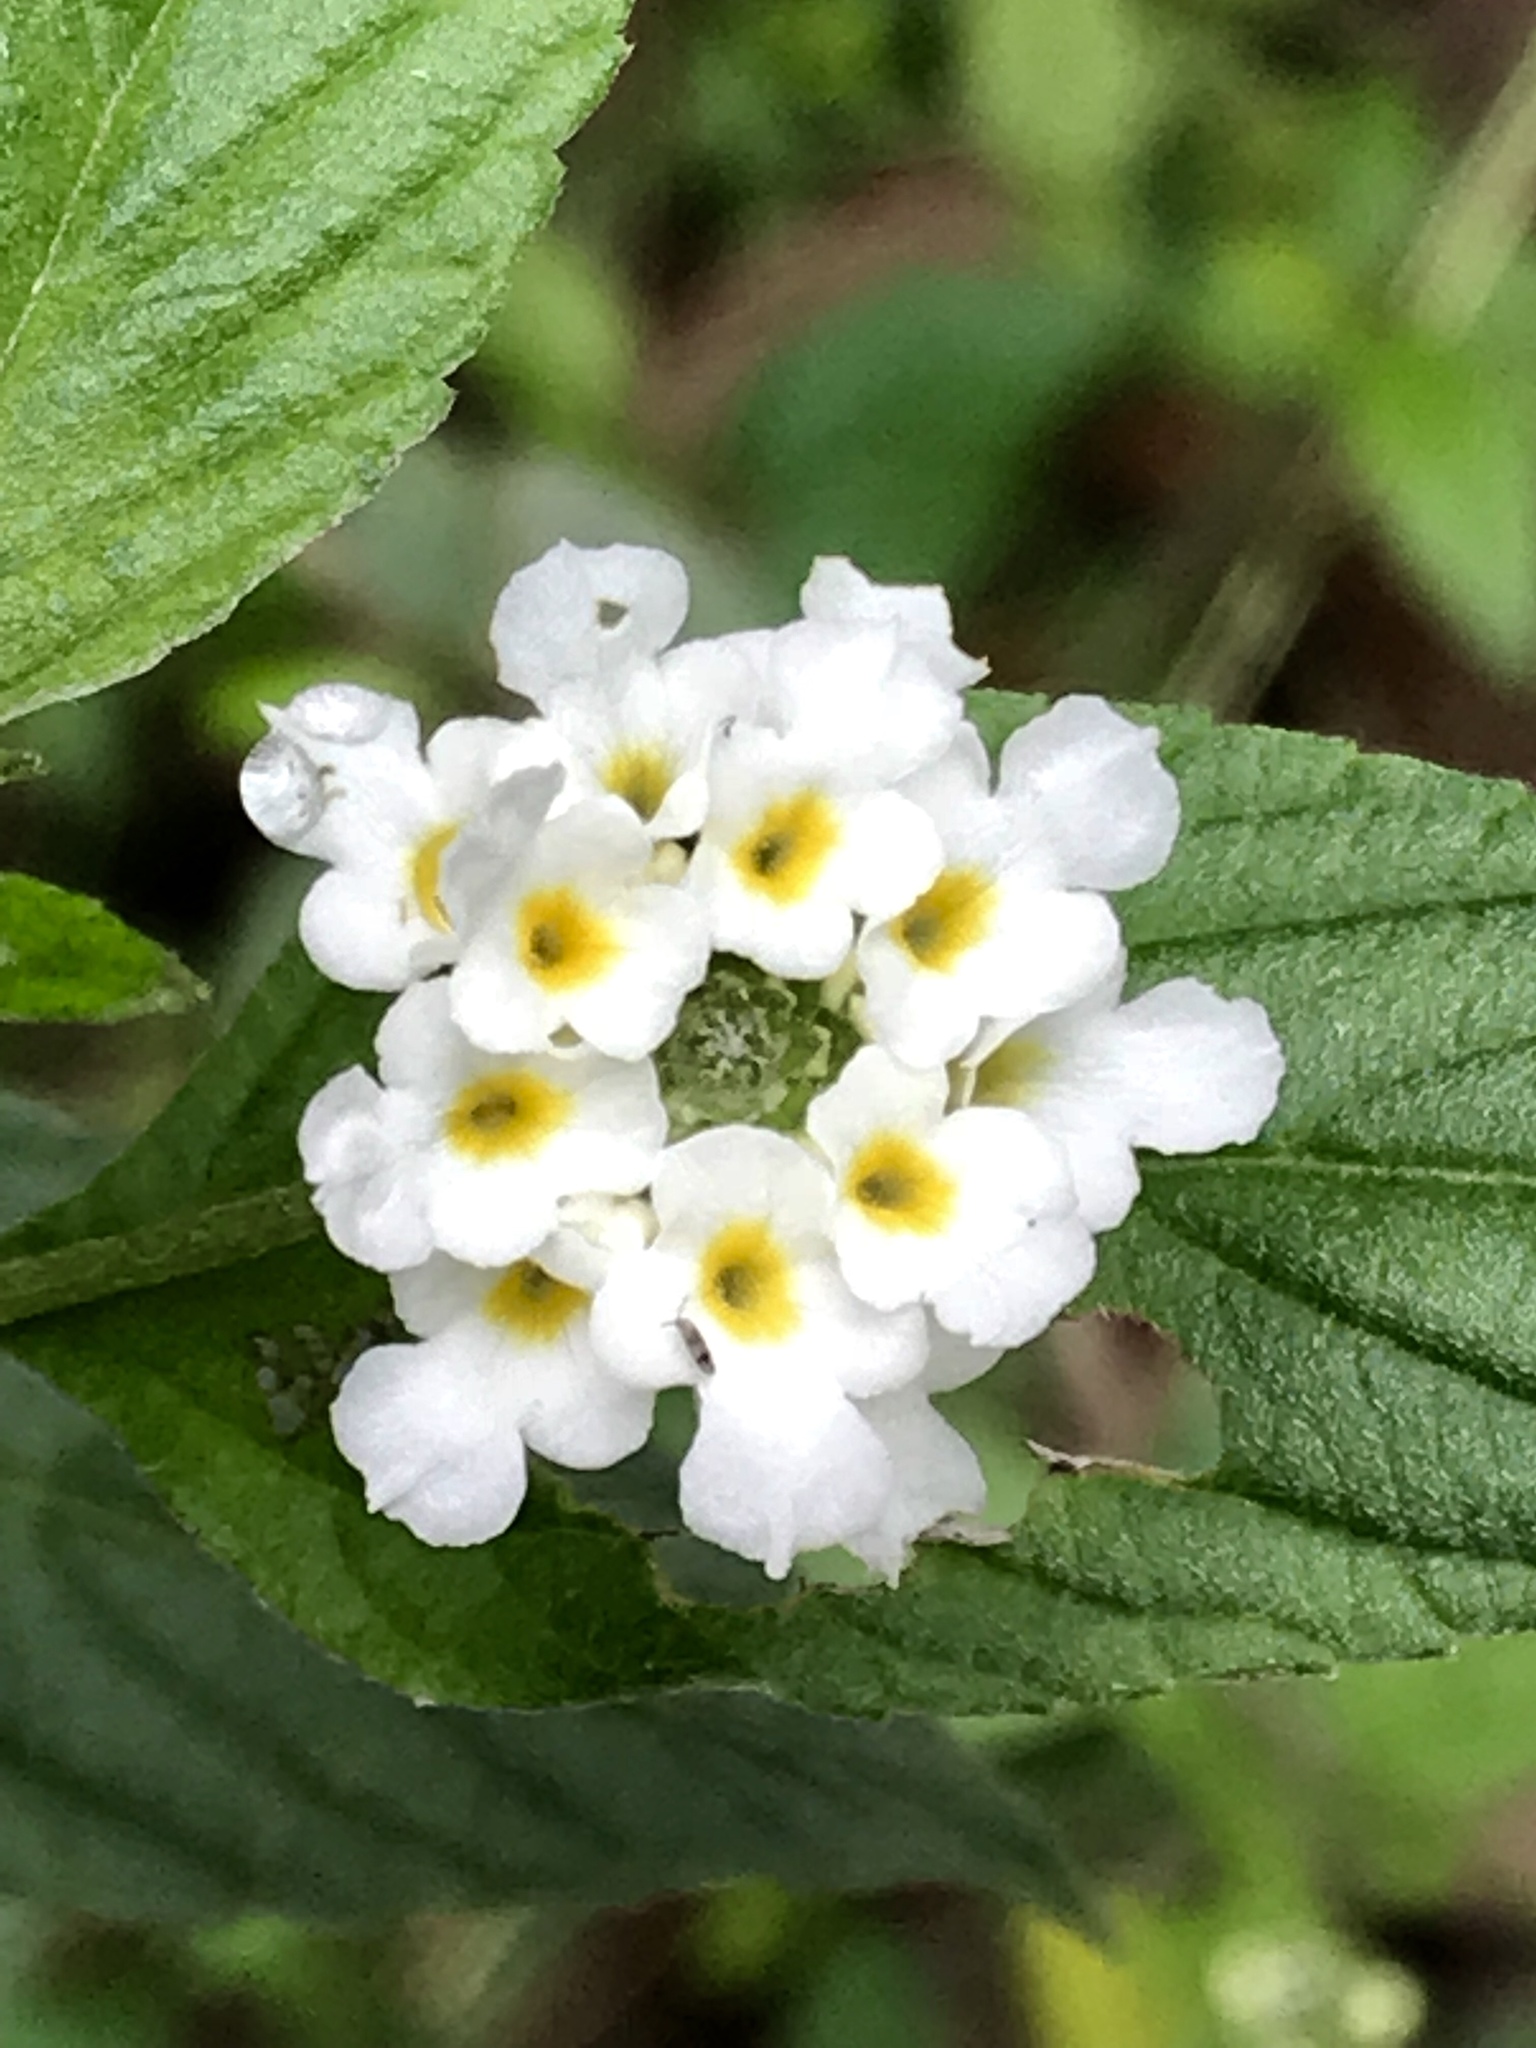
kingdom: Plantae
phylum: Tracheophyta
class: Magnoliopsida
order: Lamiales
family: Verbenaceae
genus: Lantana
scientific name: Lantana achyranthifolia
